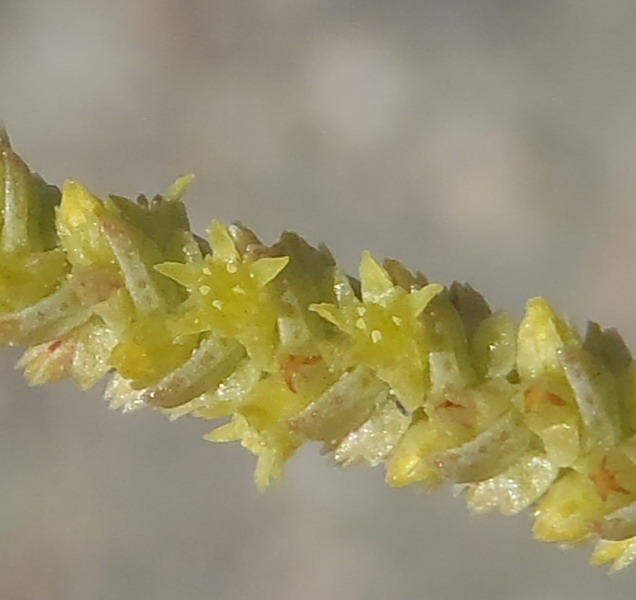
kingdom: Plantae
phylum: Tracheophyta
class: Magnoliopsida
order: Saxifragales
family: Crassulaceae
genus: Crassula
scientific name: Crassula muscosa
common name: Toy-cypress
